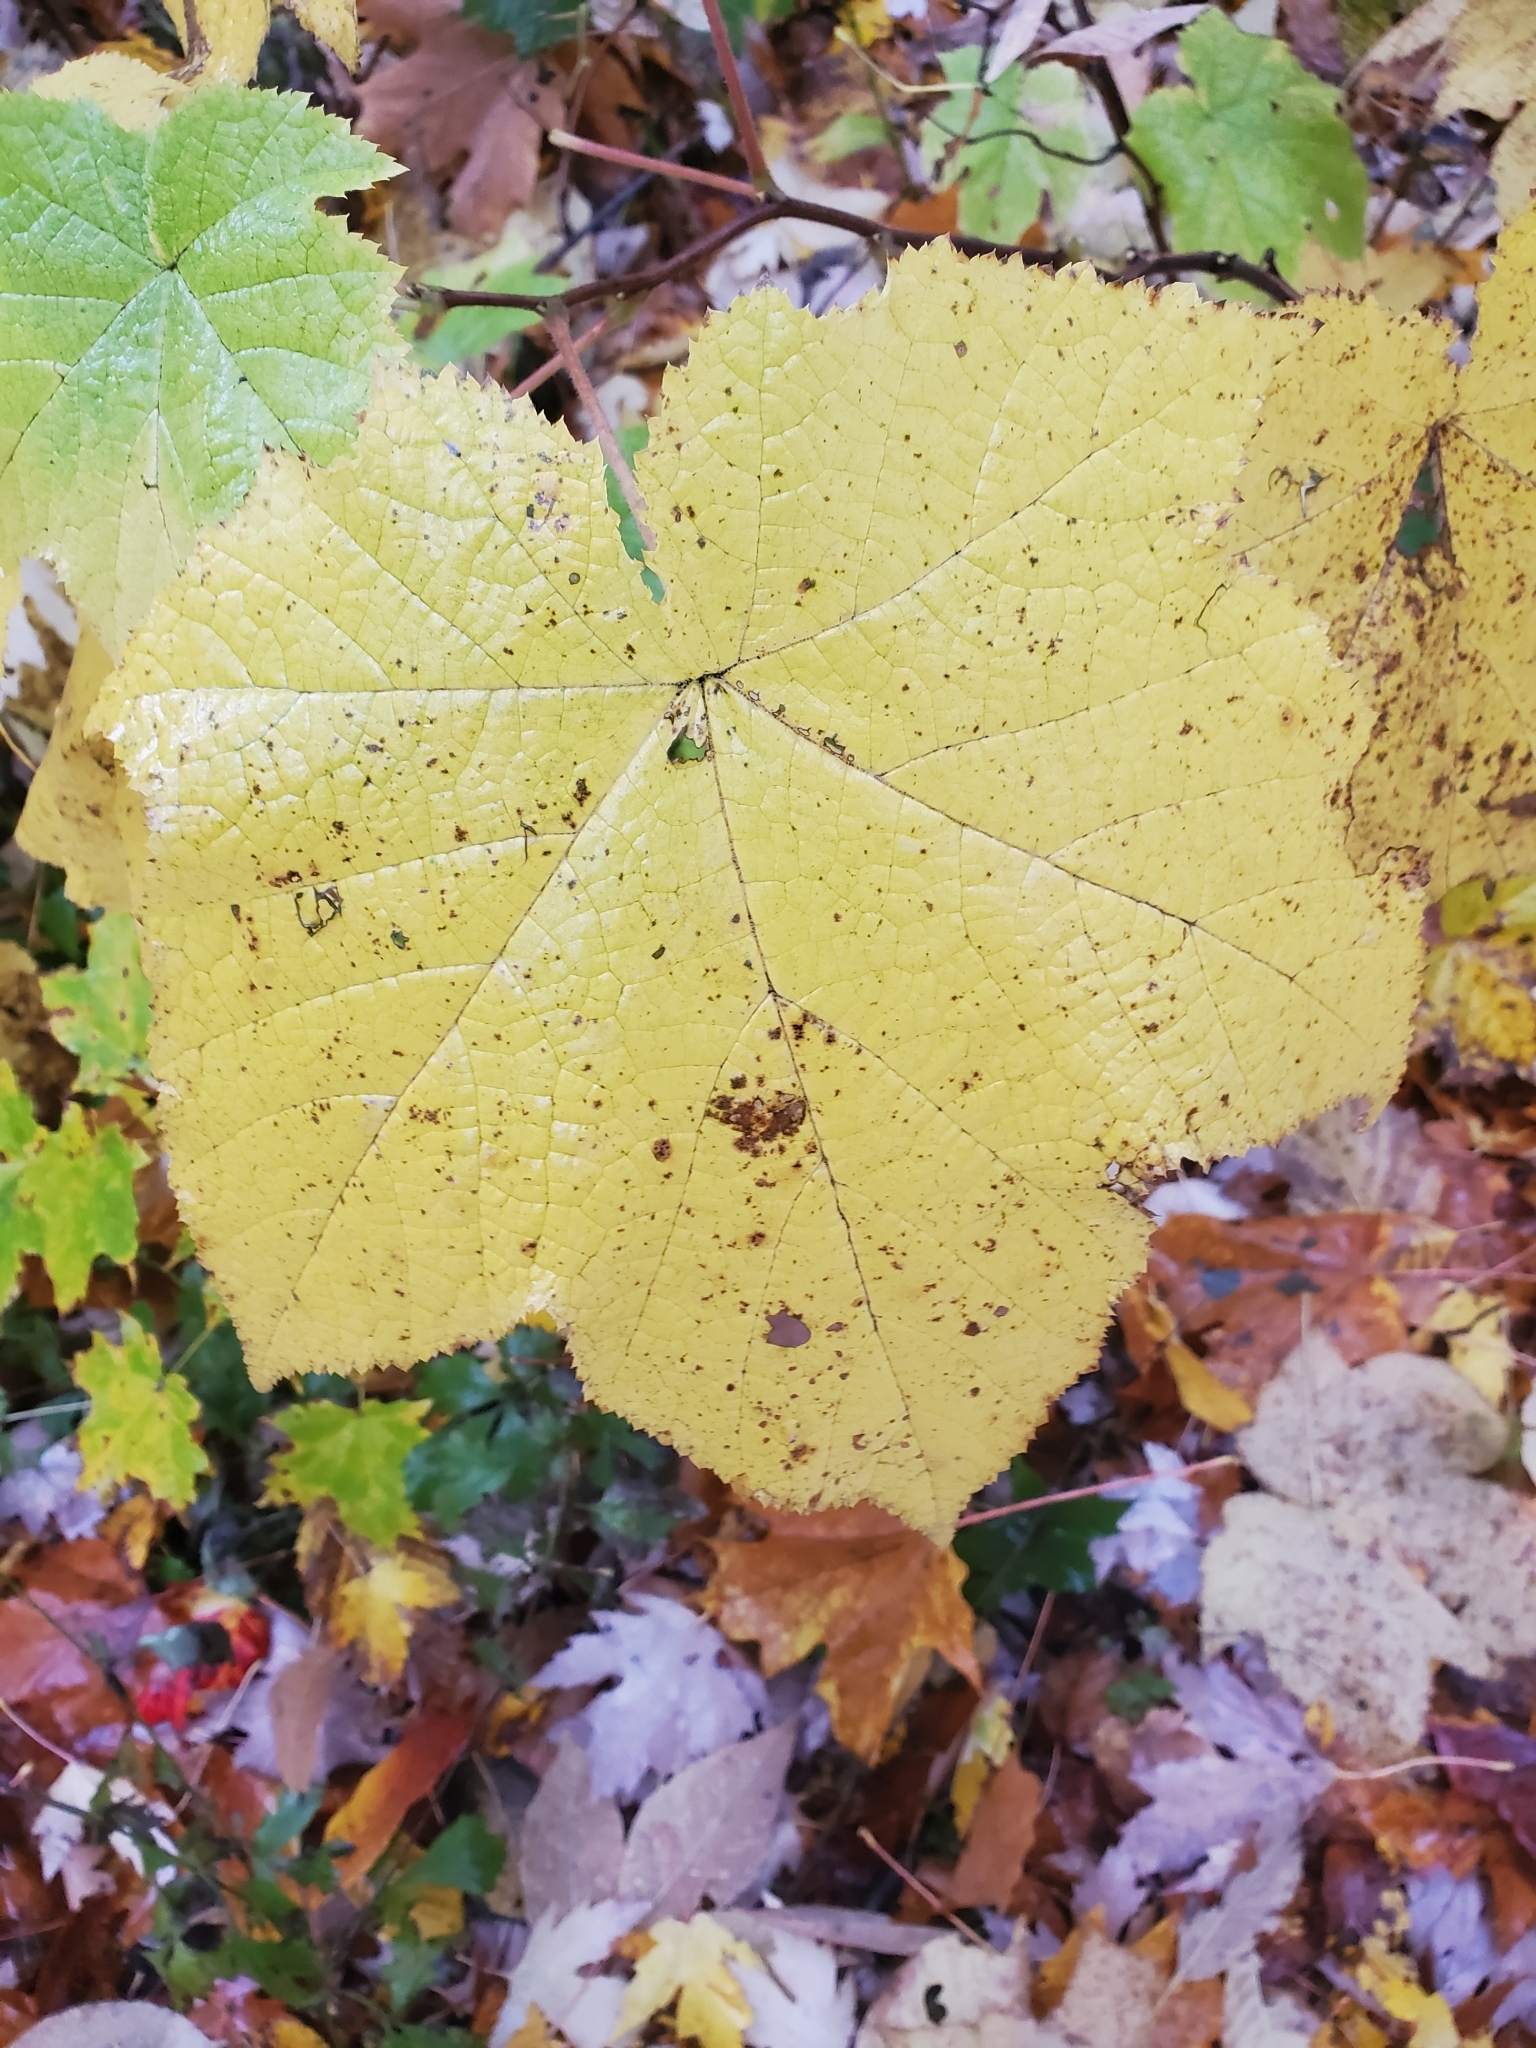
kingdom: Plantae
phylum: Tracheophyta
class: Magnoliopsida
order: Rosales
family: Rosaceae
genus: Rubus
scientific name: Rubus odoratus
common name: Purple-flowered raspberry
